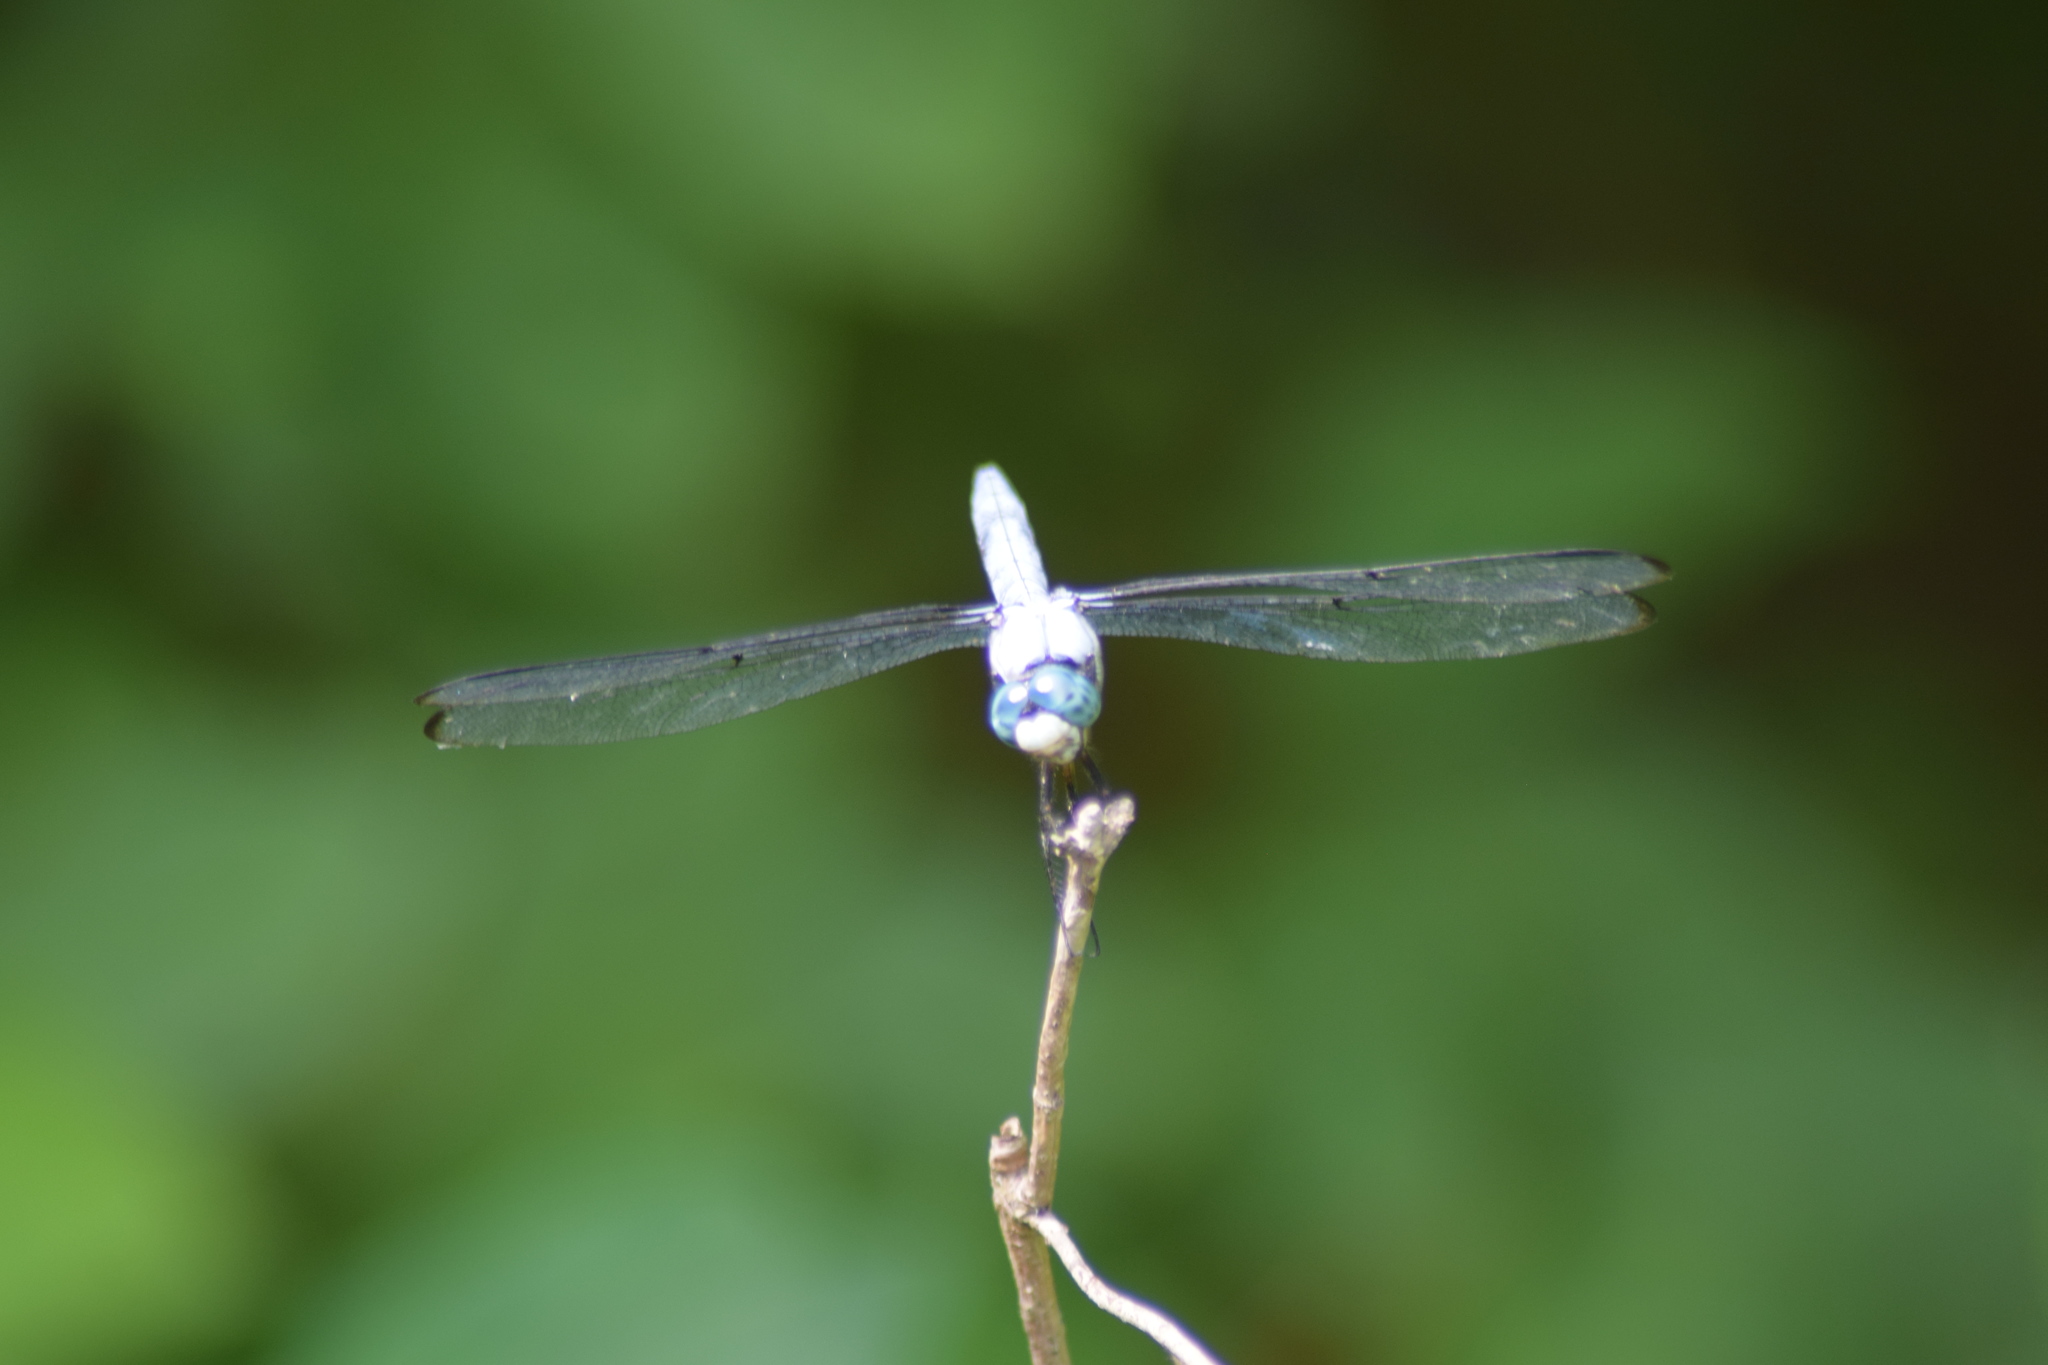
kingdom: Animalia
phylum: Arthropoda
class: Insecta
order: Odonata
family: Libellulidae
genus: Libellula
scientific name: Libellula vibrans
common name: Great blue skimmer
